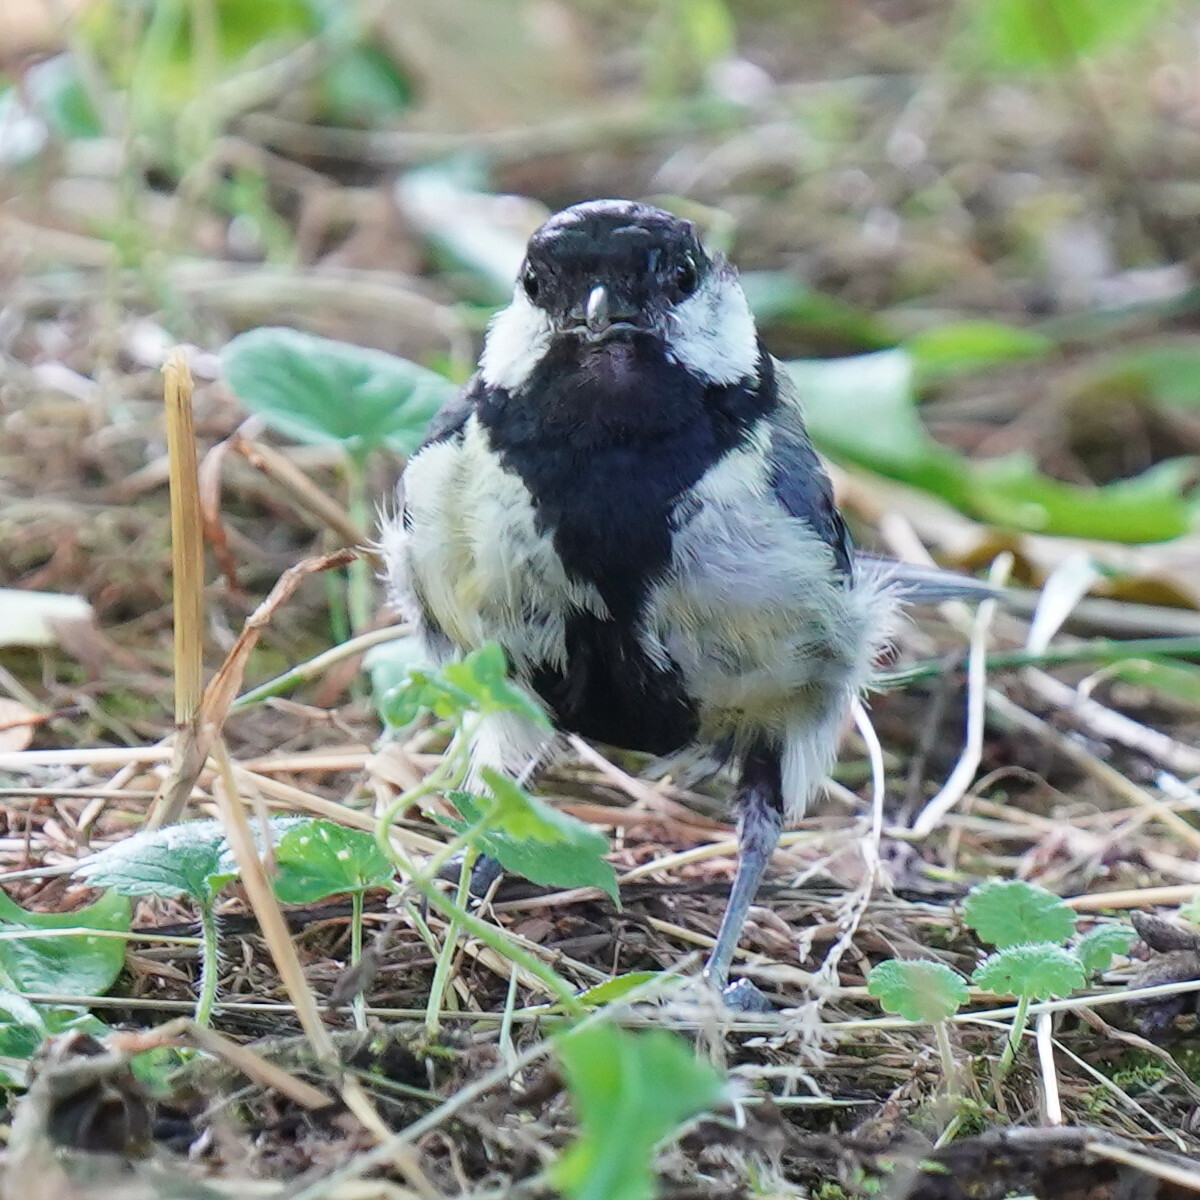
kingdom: Animalia
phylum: Chordata
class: Aves
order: Passeriformes
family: Paridae
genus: Parus
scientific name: Parus major
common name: Great tit
